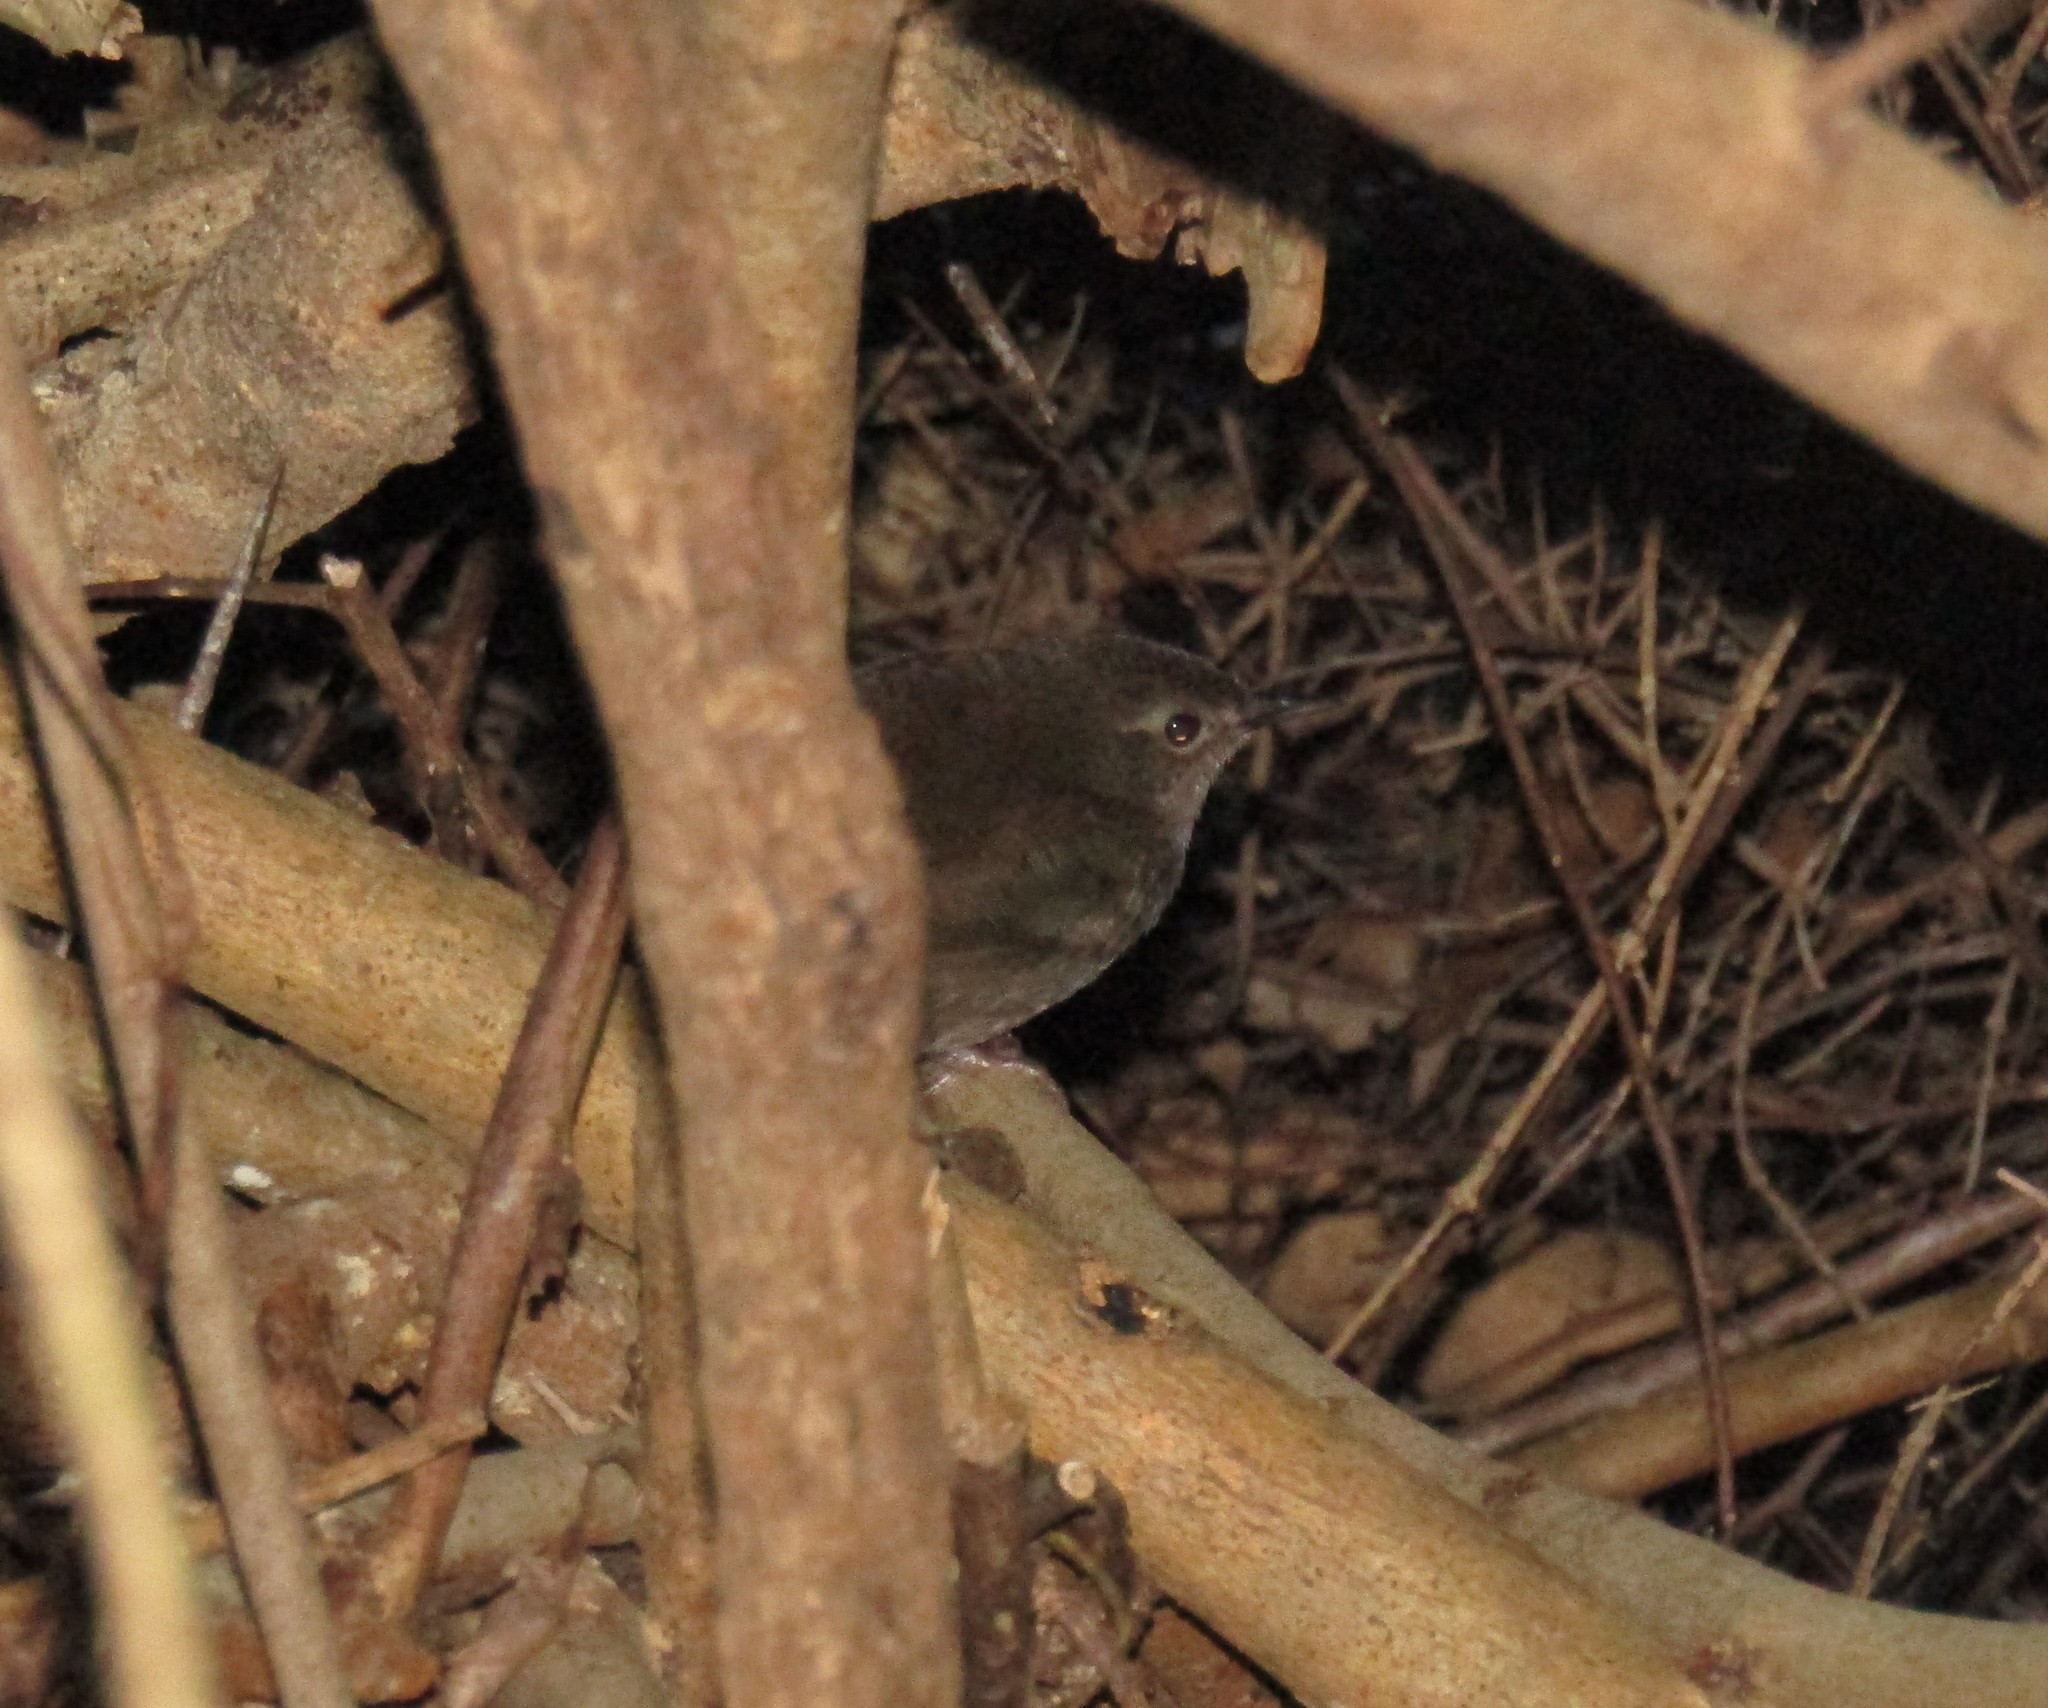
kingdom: Animalia
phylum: Chordata
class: Aves
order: Passeriformes
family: Locustellidae
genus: Bradypterus
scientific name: Bradypterus sylvaticus
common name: Knysna warbler
